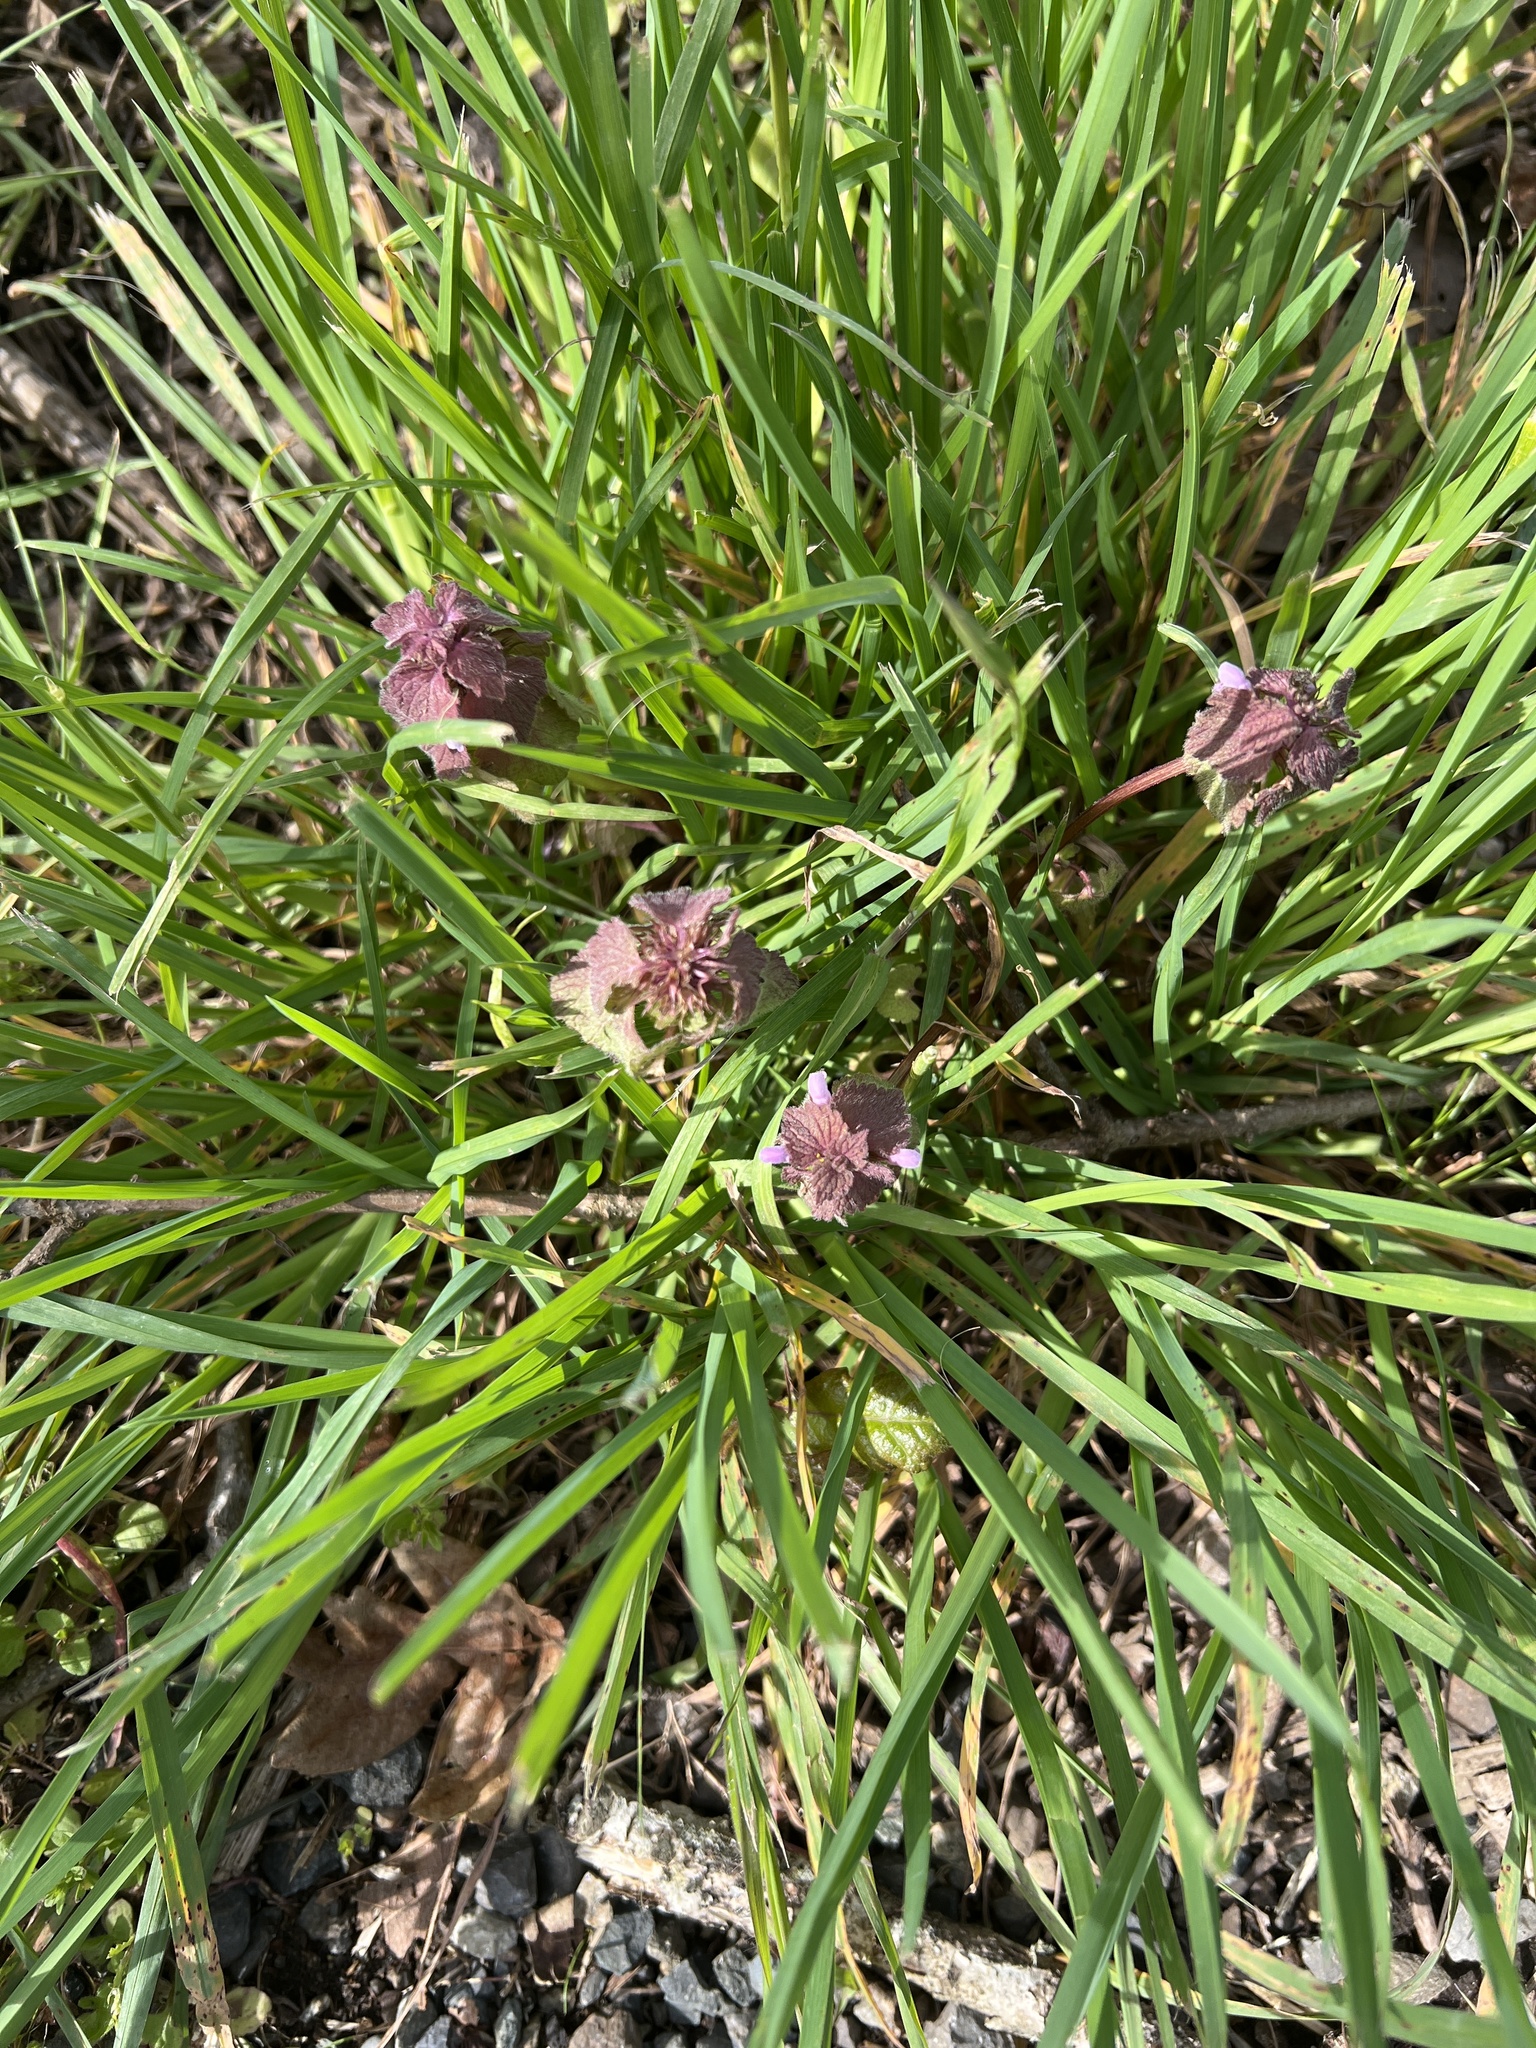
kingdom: Plantae
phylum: Tracheophyta
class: Magnoliopsida
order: Lamiales
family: Lamiaceae
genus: Lamium
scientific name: Lamium purpureum
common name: Red dead-nettle
